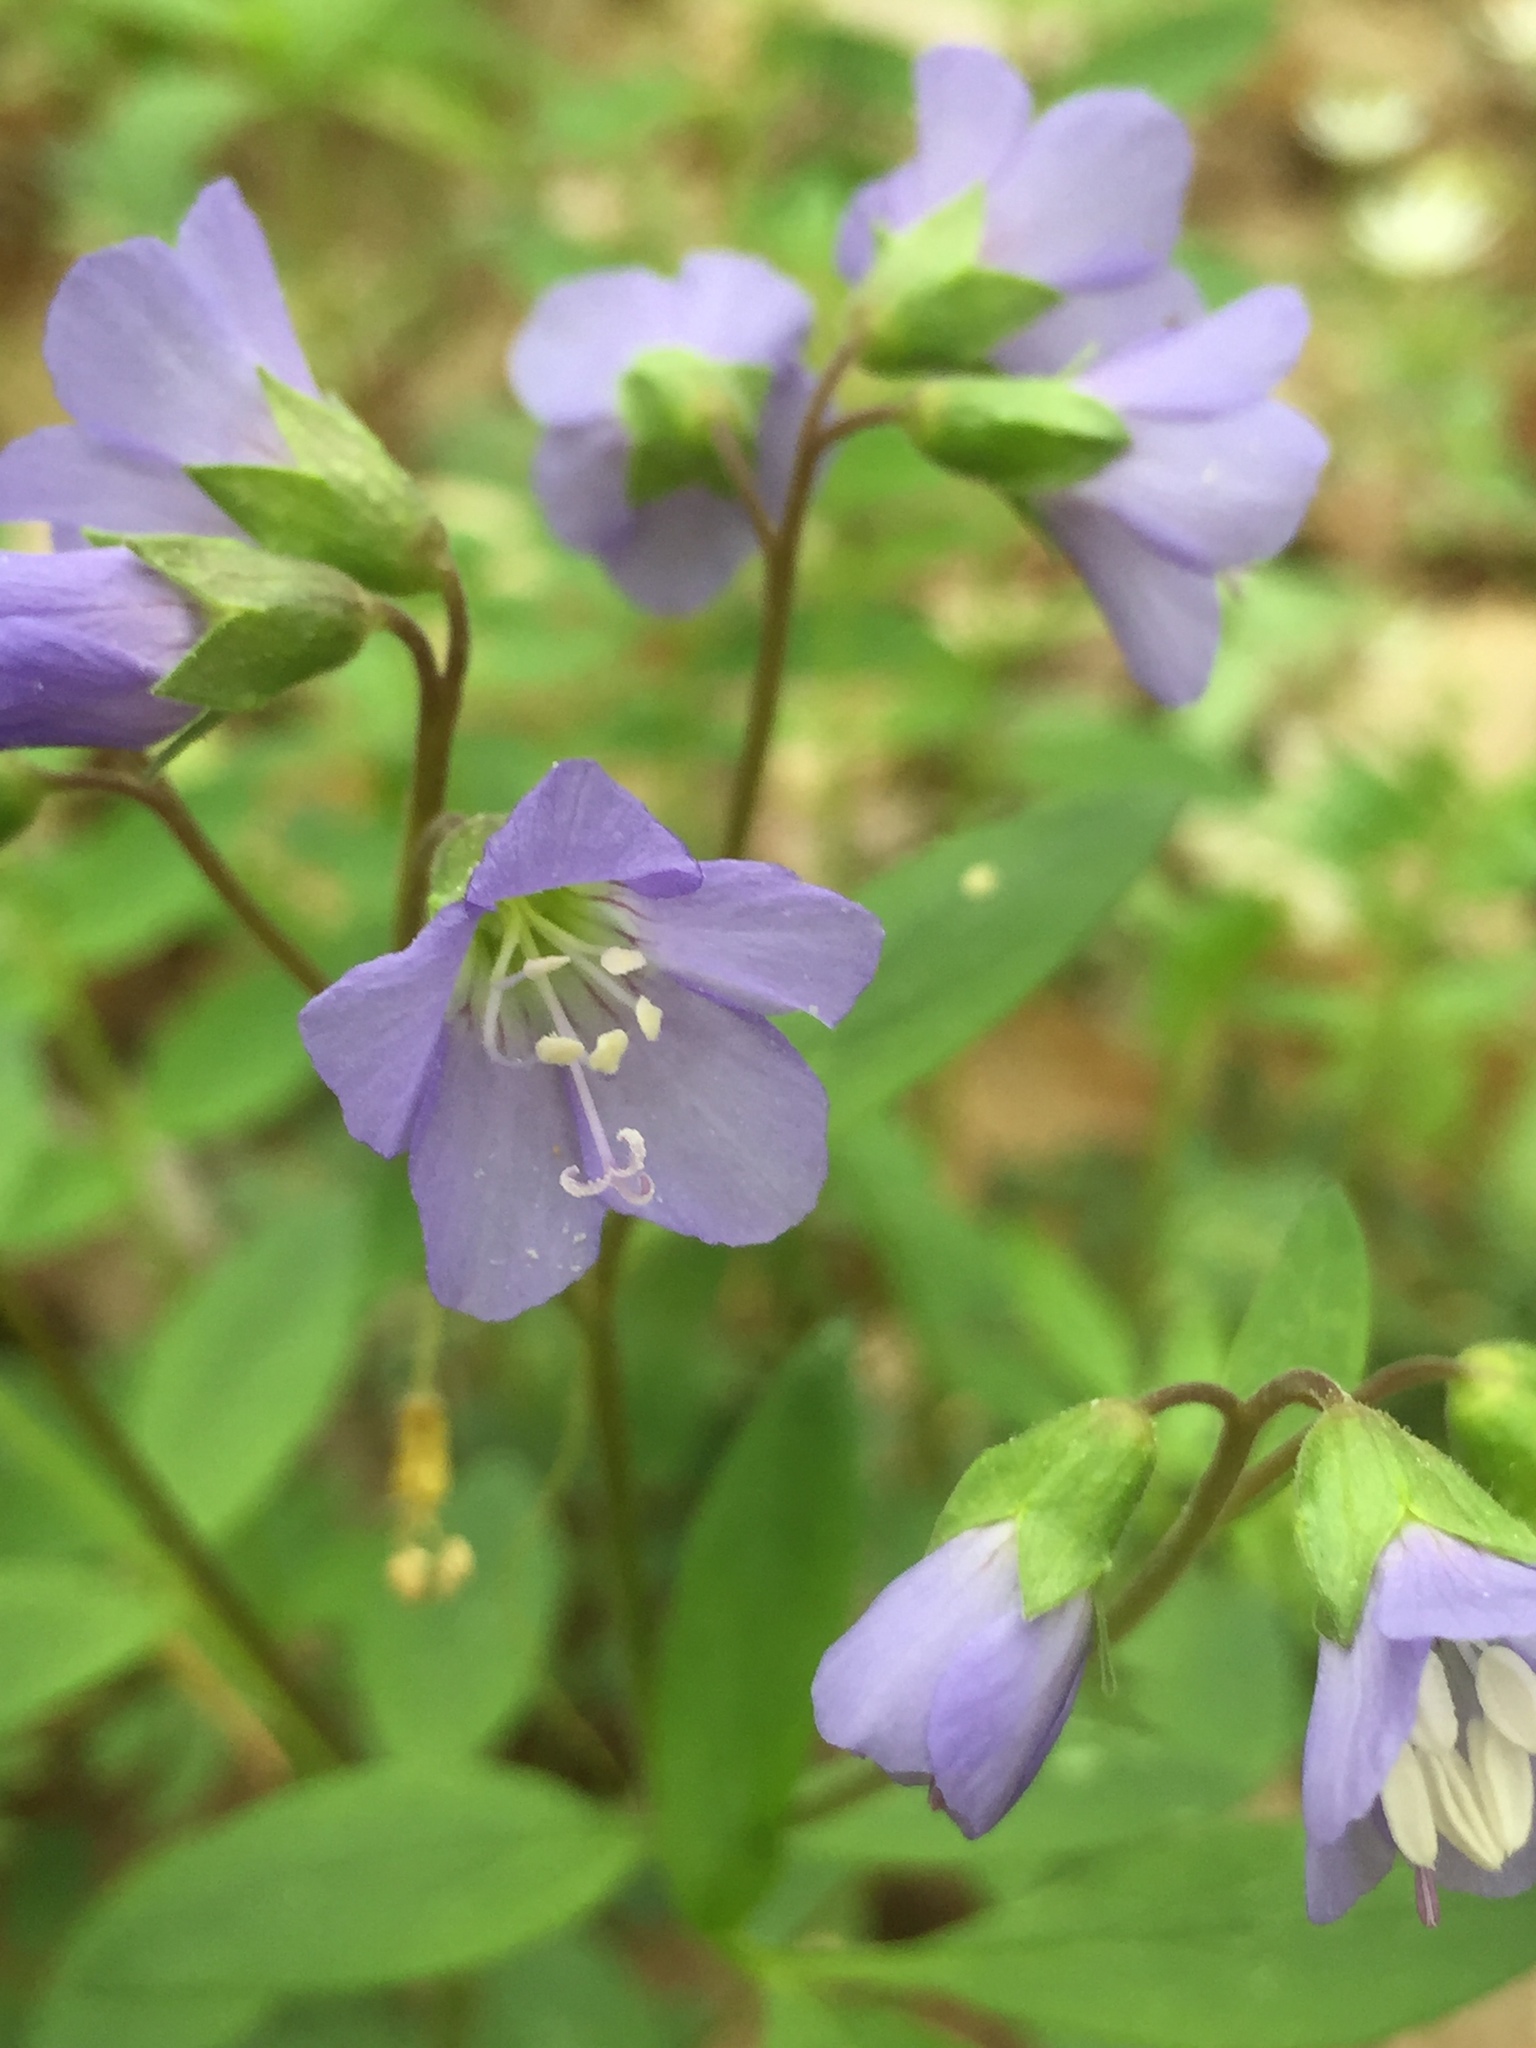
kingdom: Plantae
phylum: Tracheophyta
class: Magnoliopsida
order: Ericales
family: Polemoniaceae
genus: Polemonium
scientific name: Polemonium reptans
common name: Creeping jacob's-ladder
